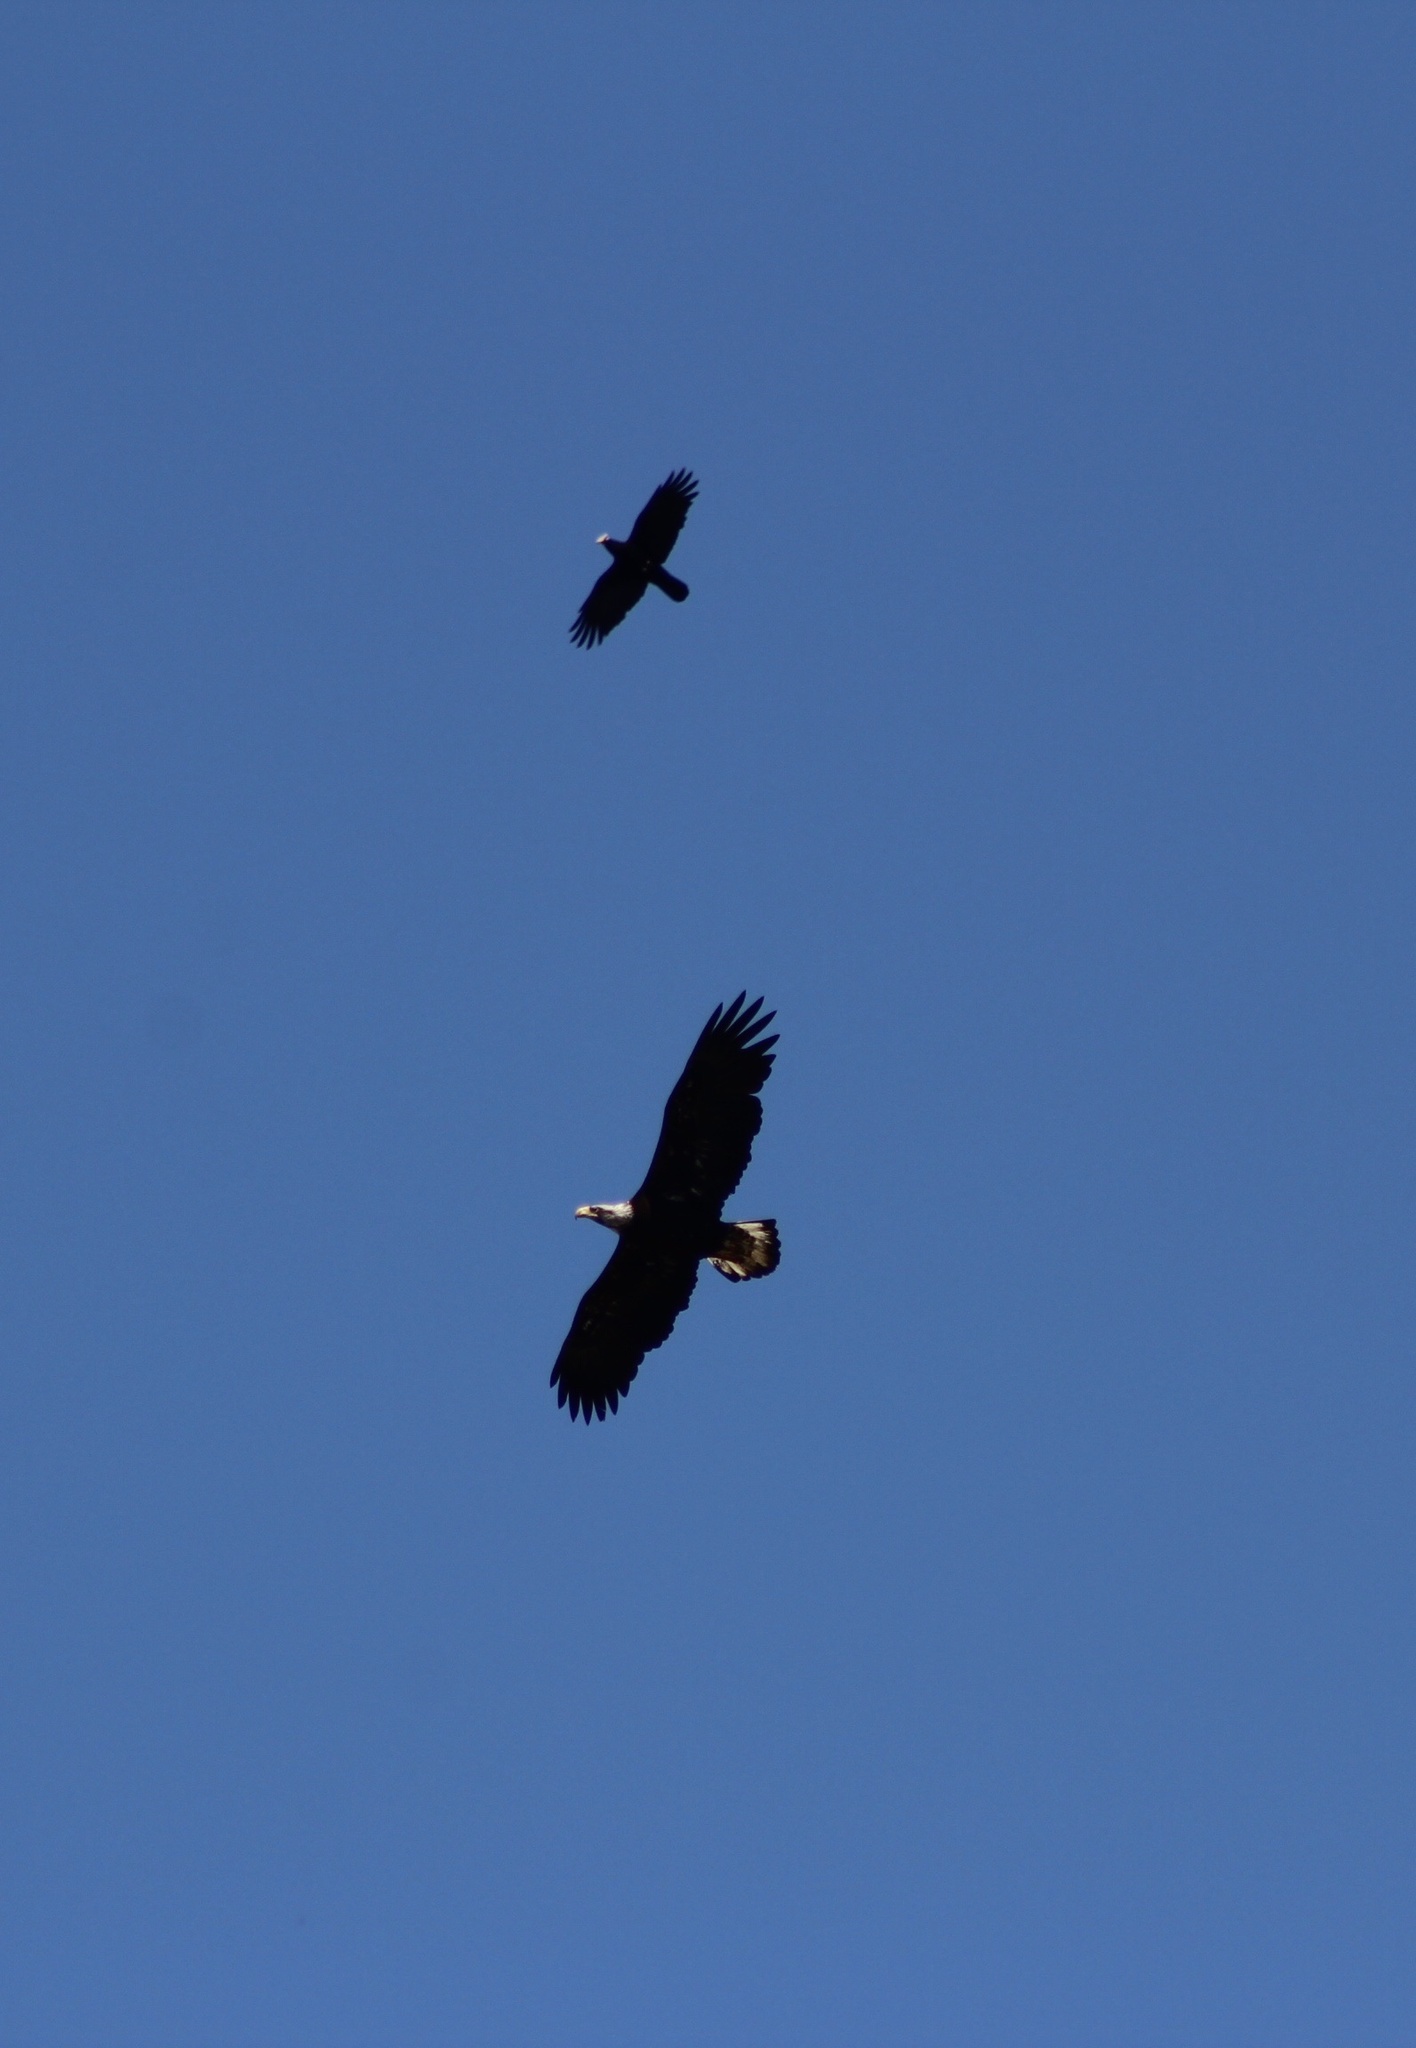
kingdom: Animalia
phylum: Chordata
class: Aves
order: Passeriformes
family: Corvidae
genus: Corvus
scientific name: Corvus brachyrhynchos
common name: American crow
